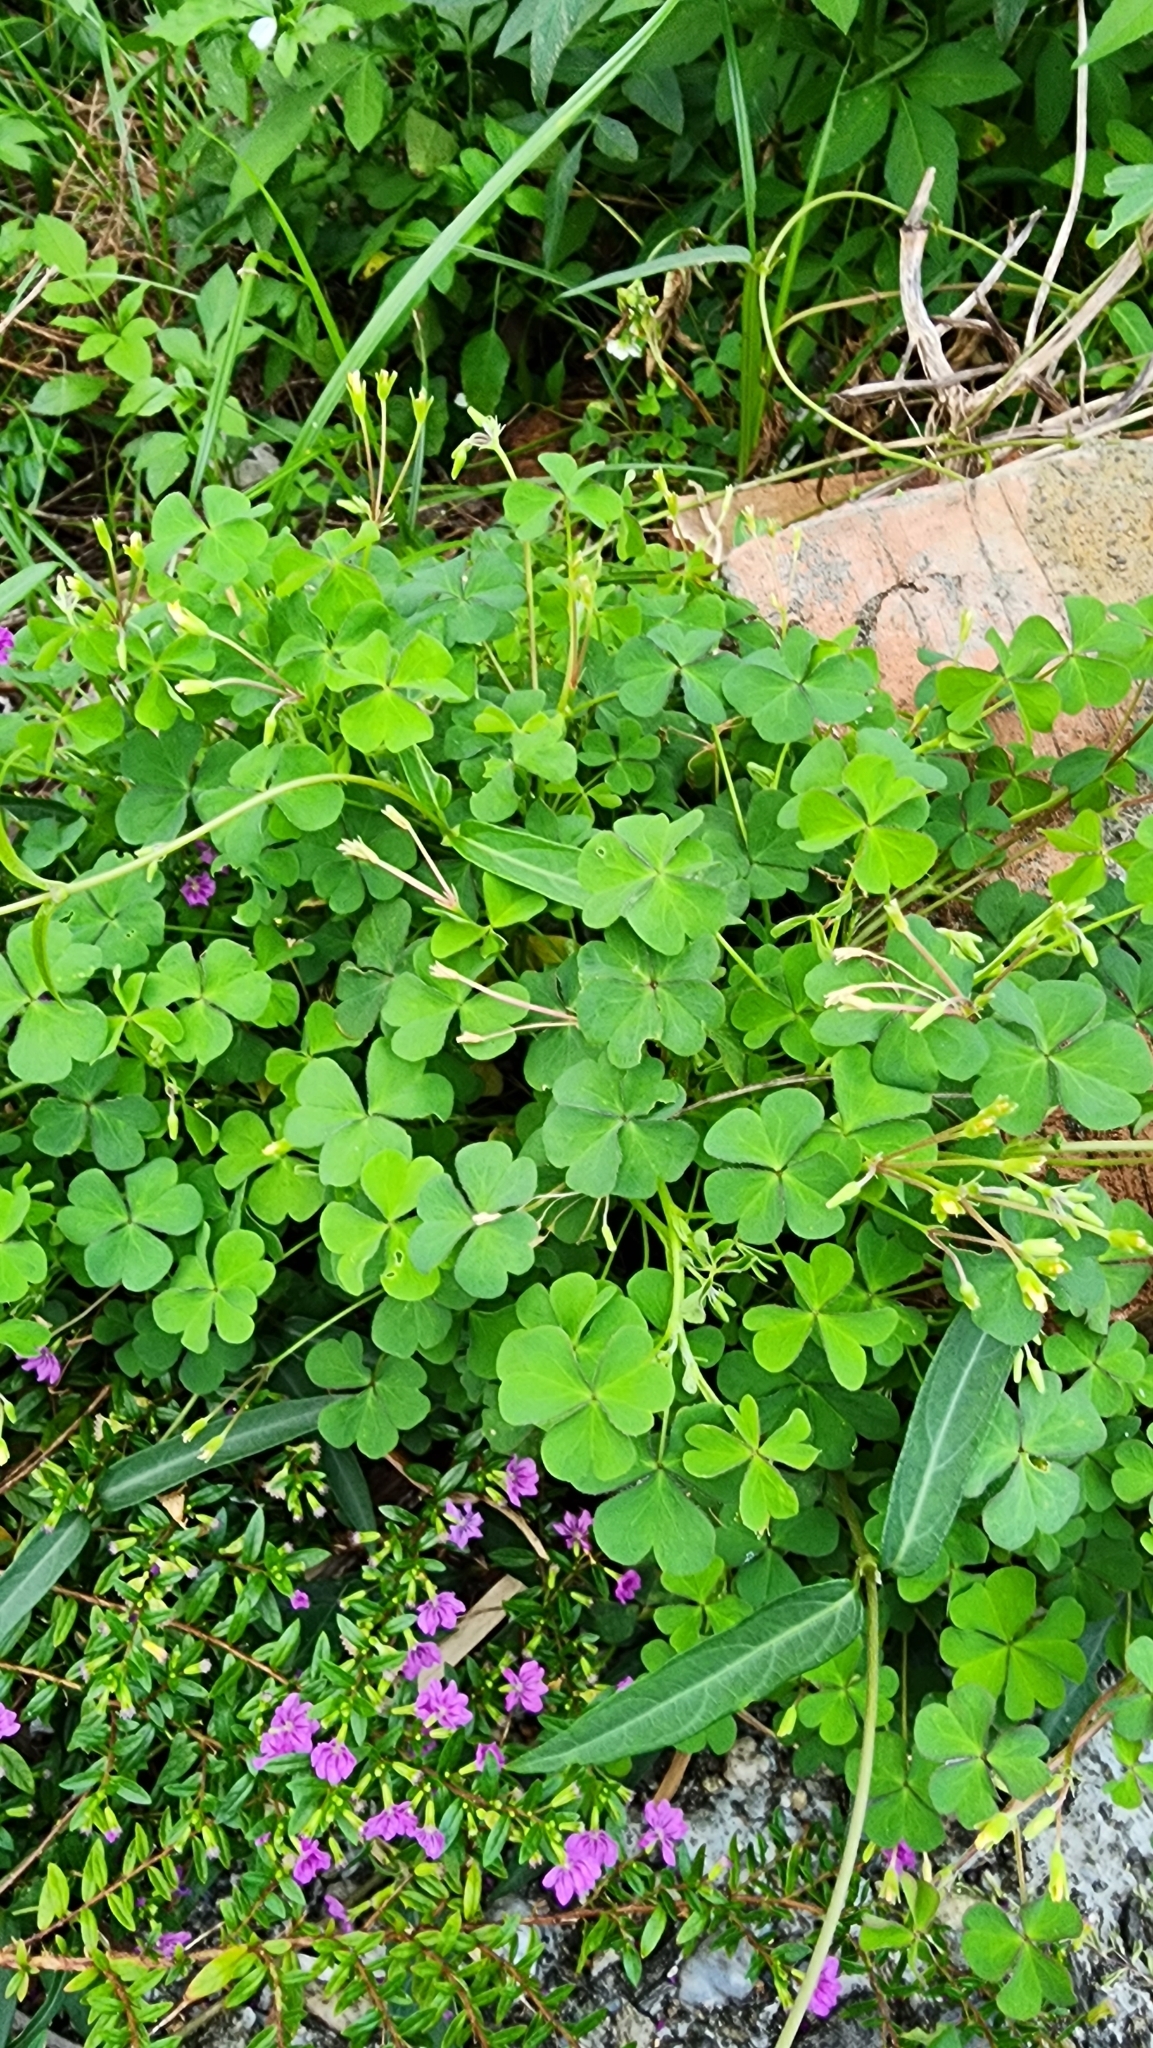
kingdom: Plantae
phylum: Tracheophyta
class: Magnoliopsida
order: Oxalidales
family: Oxalidaceae
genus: Oxalis
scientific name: Oxalis corniculata
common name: Procumbent yellow-sorrel
